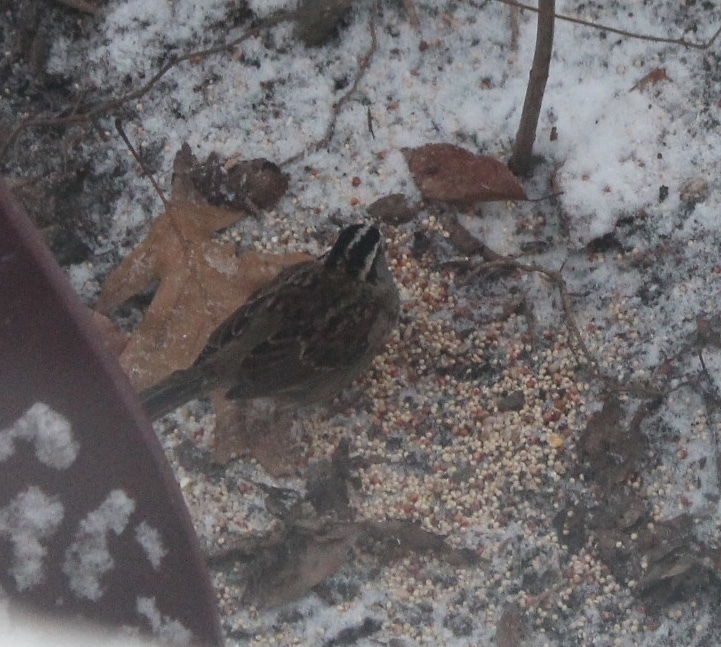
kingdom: Animalia
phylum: Chordata
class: Aves
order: Passeriformes
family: Passerellidae
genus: Zonotrichia
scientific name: Zonotrichia albicollis
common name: White-throated sparrow
